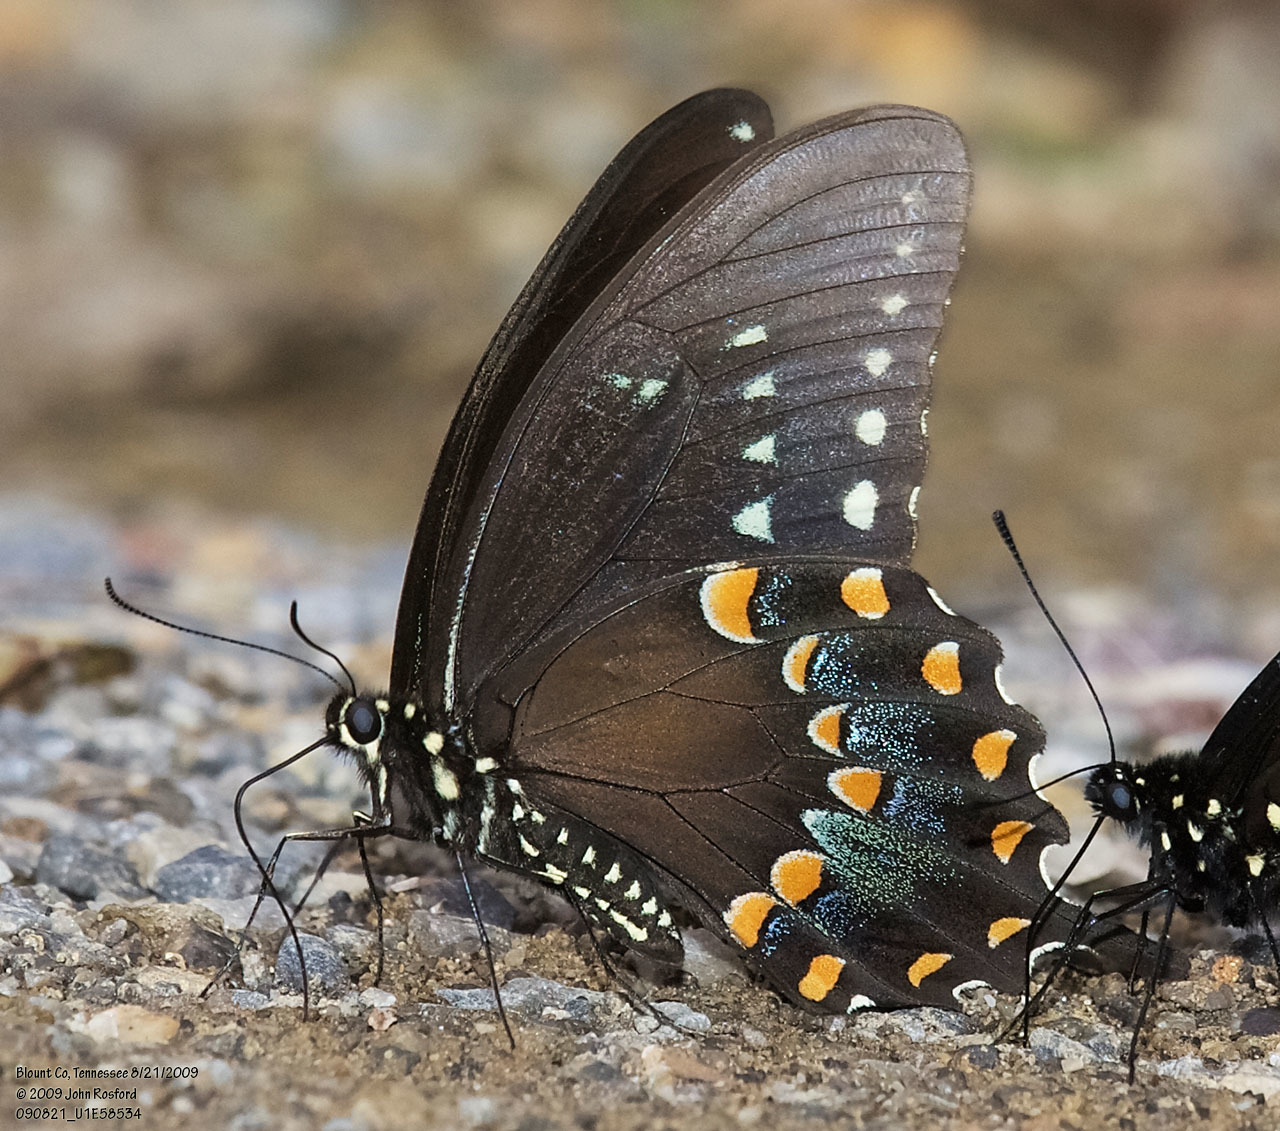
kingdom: Animalia
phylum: Arthropoda
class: Insecta
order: Lepidoptera
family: Papilionidae
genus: Papilio
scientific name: Papilio troilus
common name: Spicebush swallowtail
